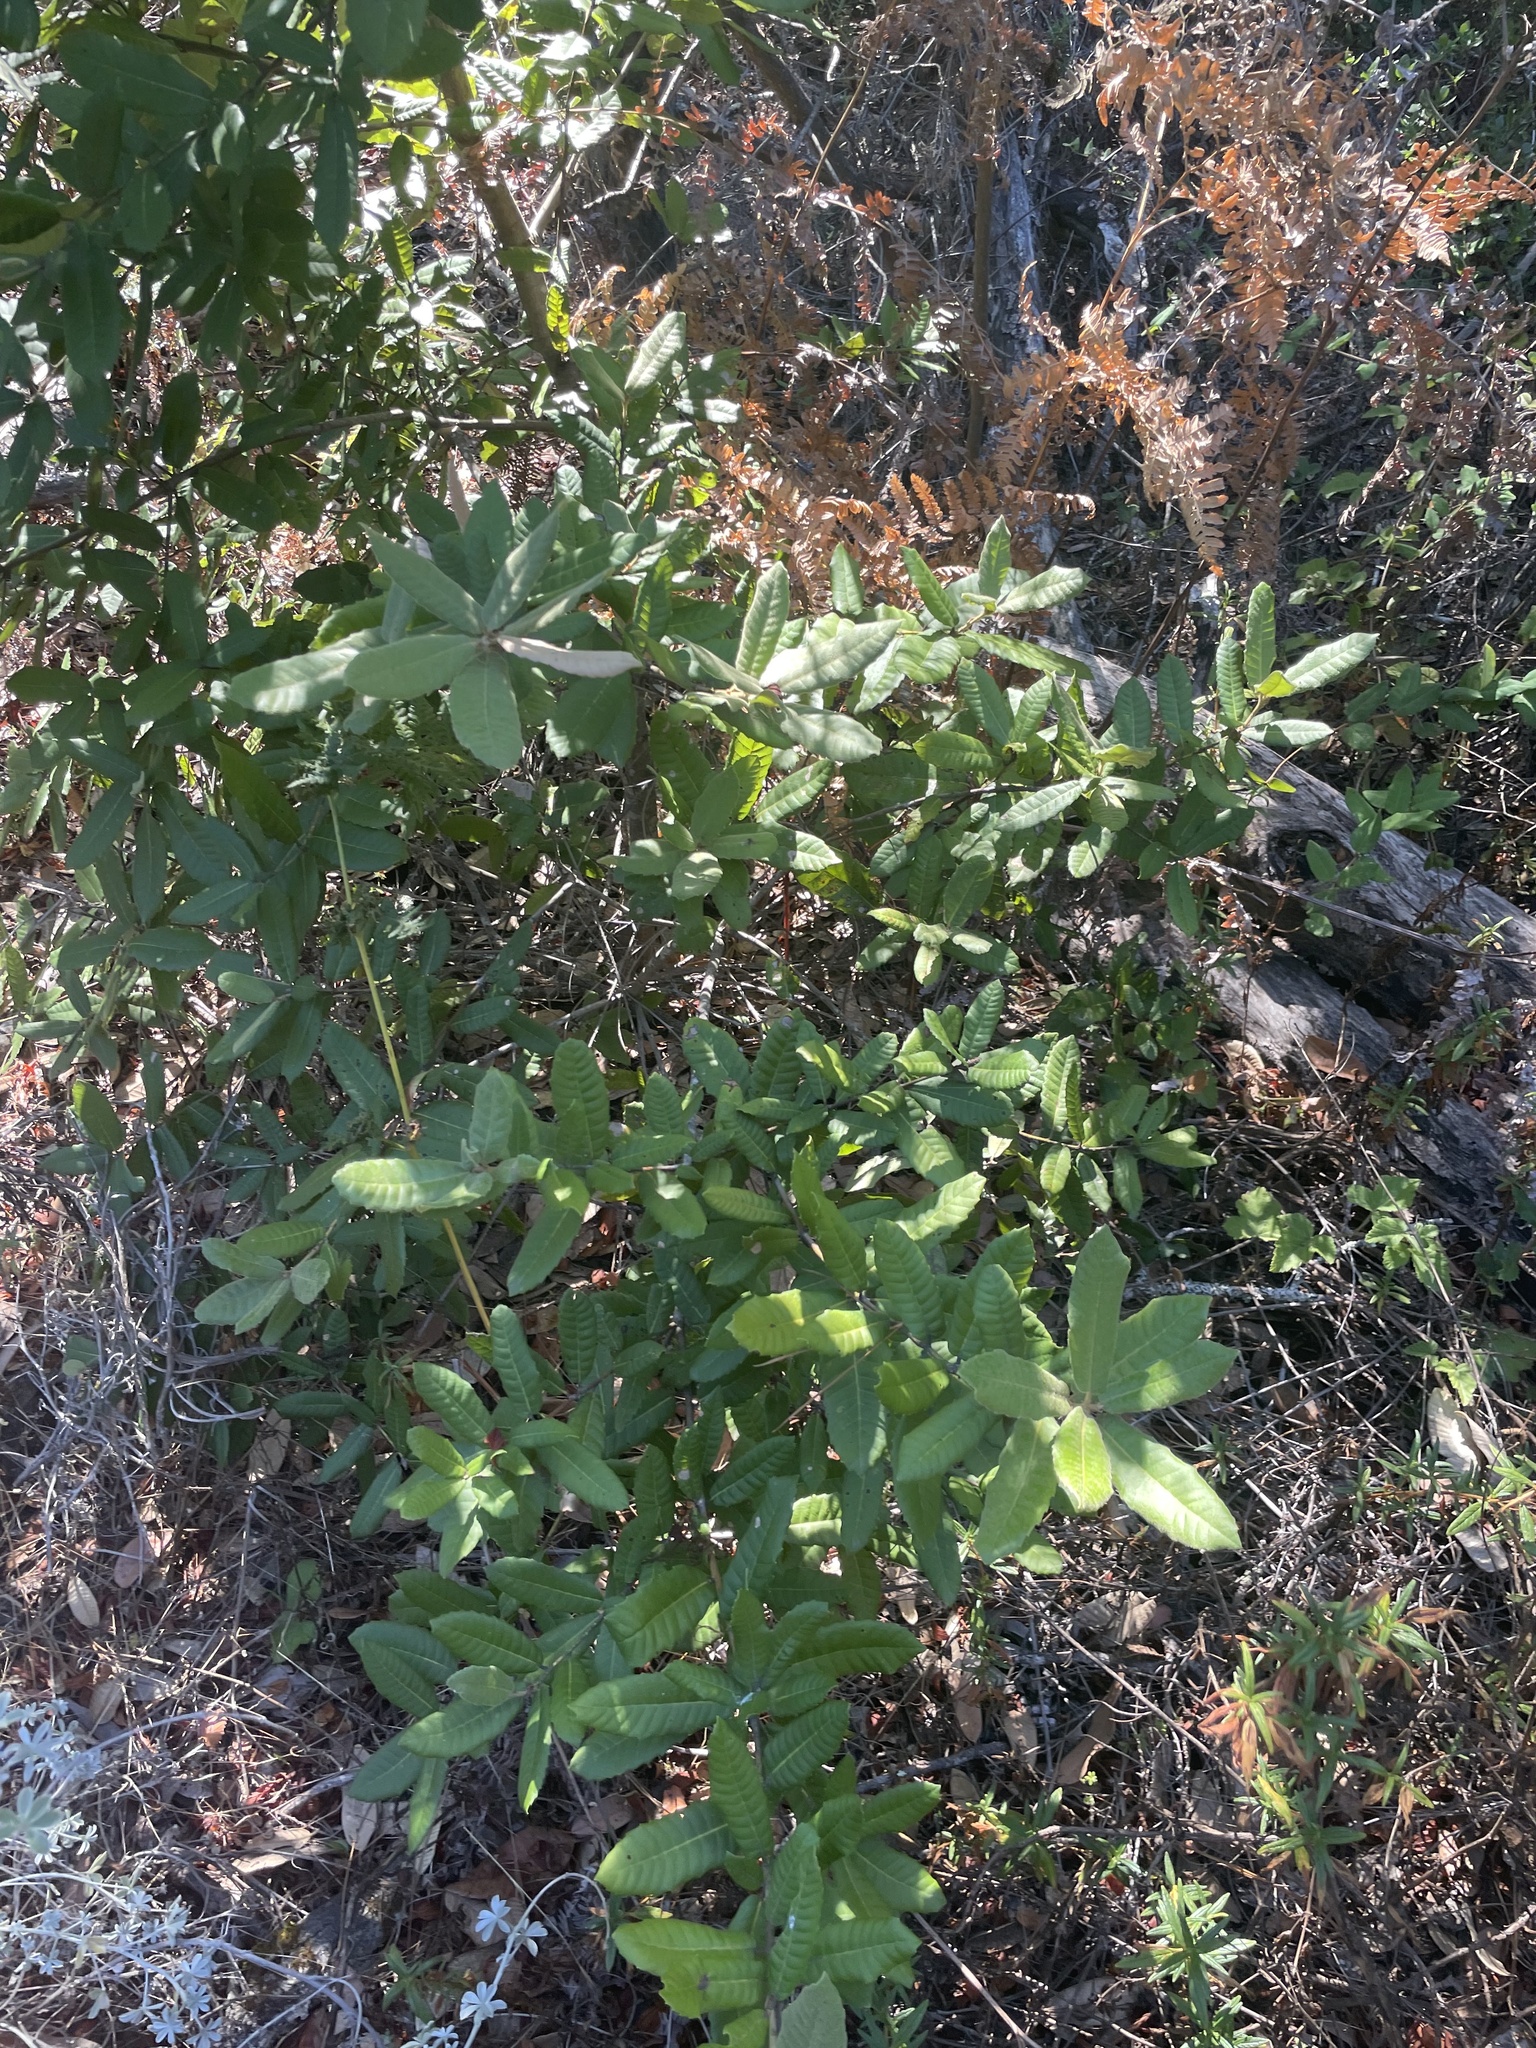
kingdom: Plantae
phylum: Tracheophyta
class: Magnoliopsida
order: Fagales
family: Fagaceae
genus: Notholithocarpus
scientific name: Notholithocarpus densiflorus
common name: Tan bark oak
